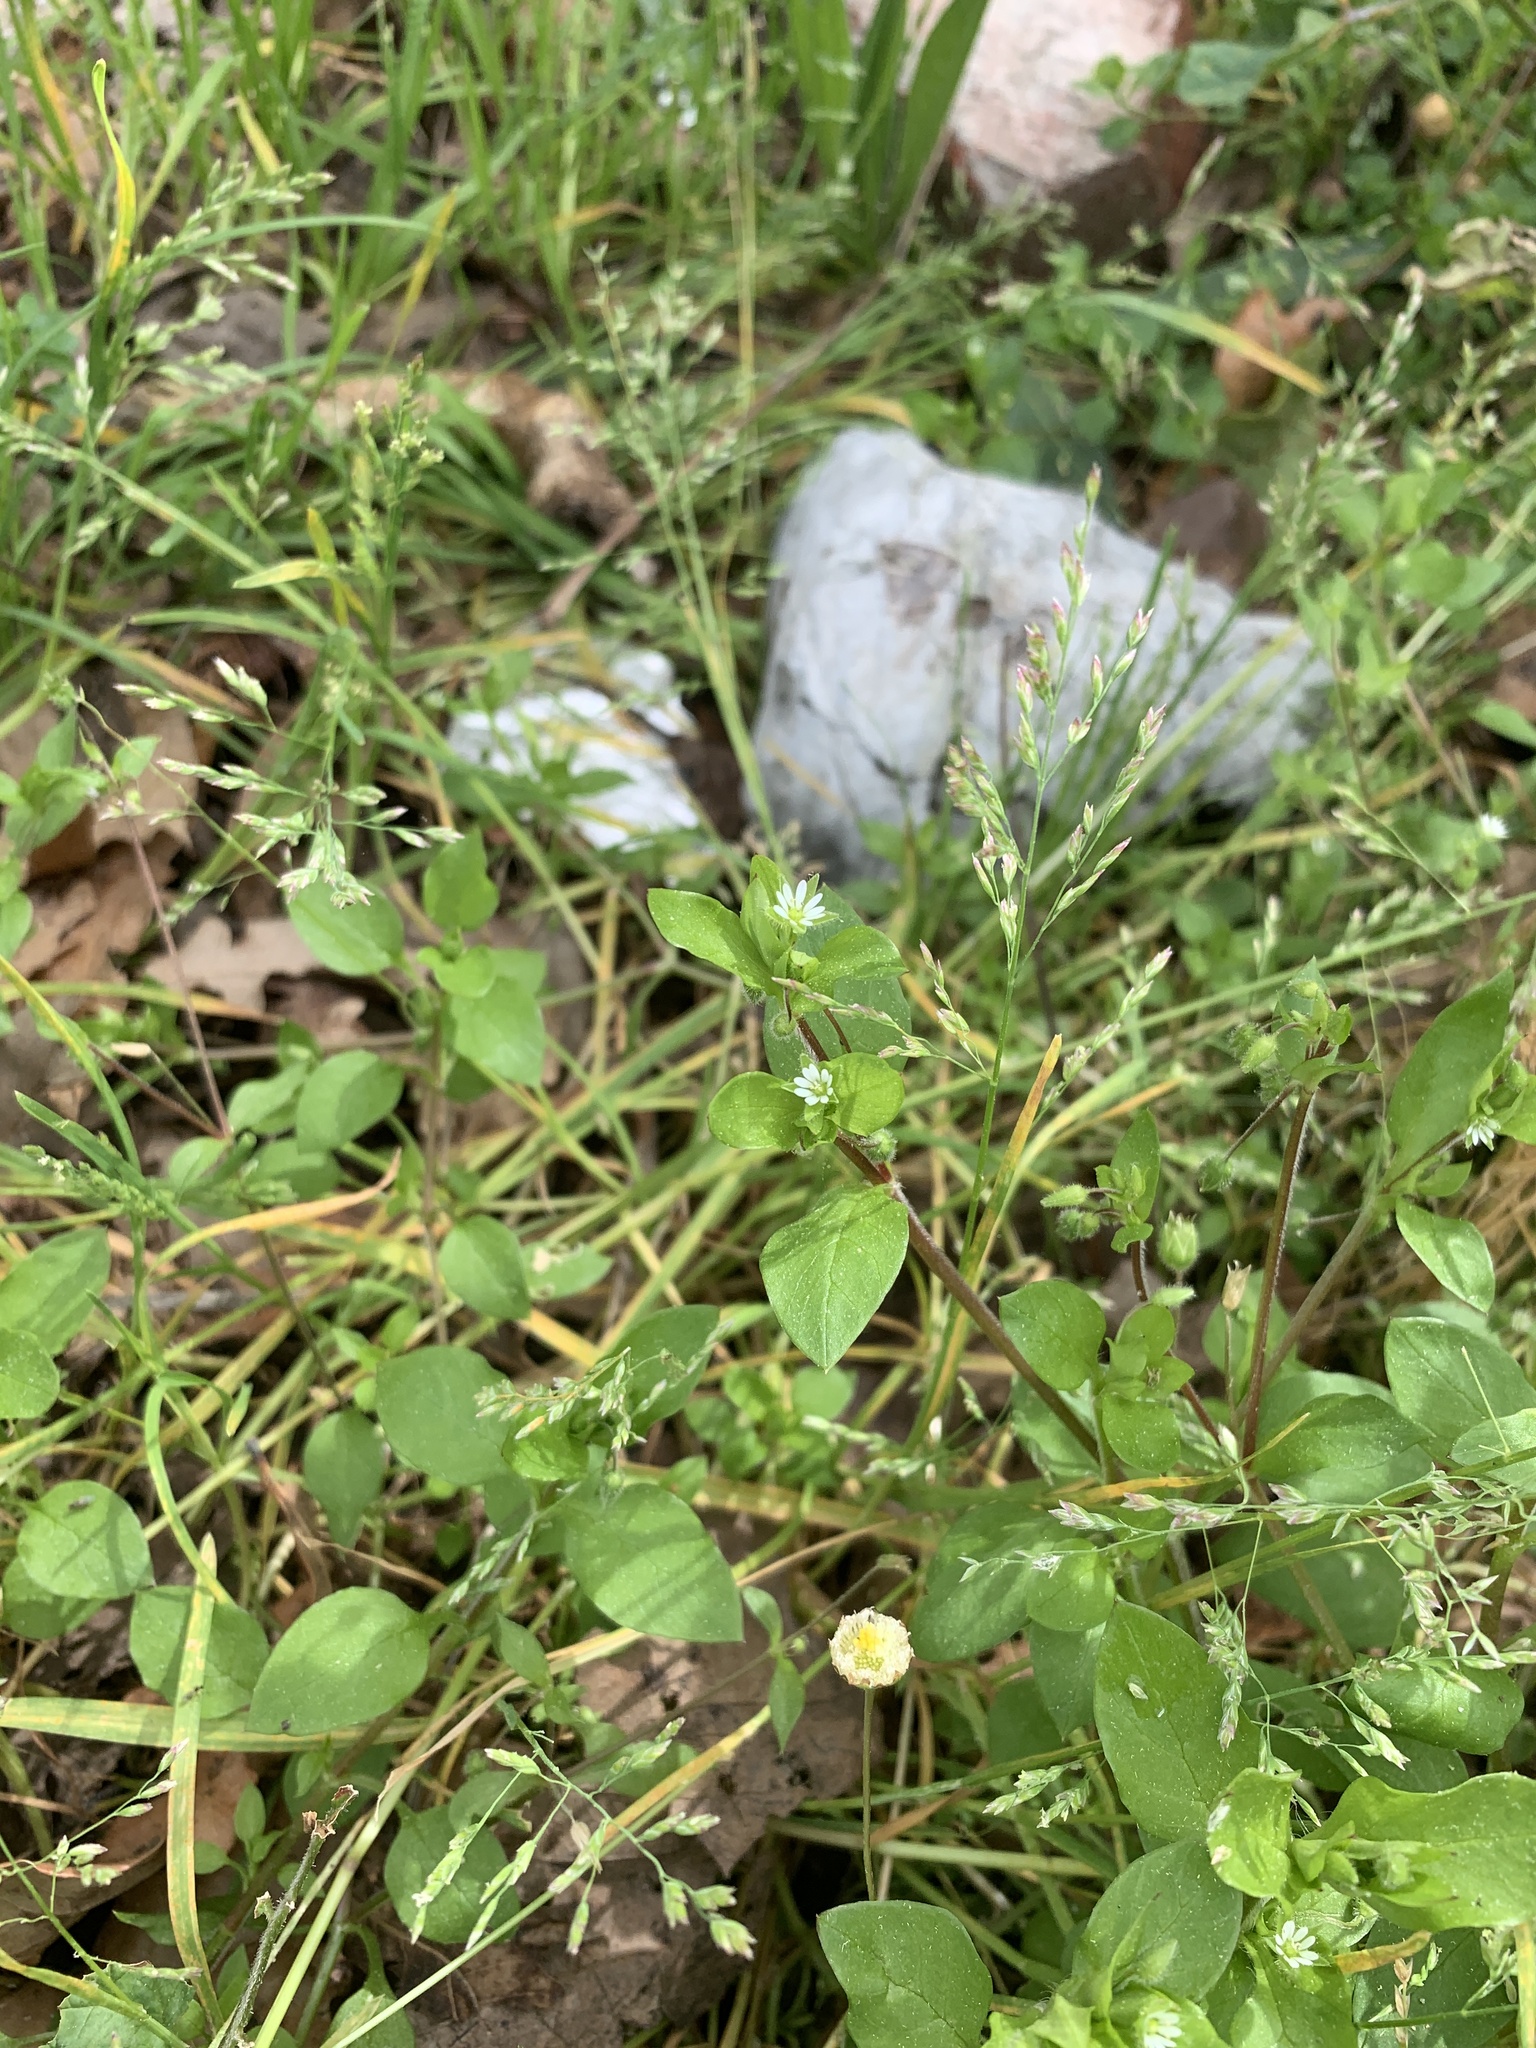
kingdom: Plantae
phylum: Tracheophyta
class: Magnoliopsida
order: Caryophyllales
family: Caryophyllaceae
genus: Stellaria
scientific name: Stellaria media
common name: Common chickweed
